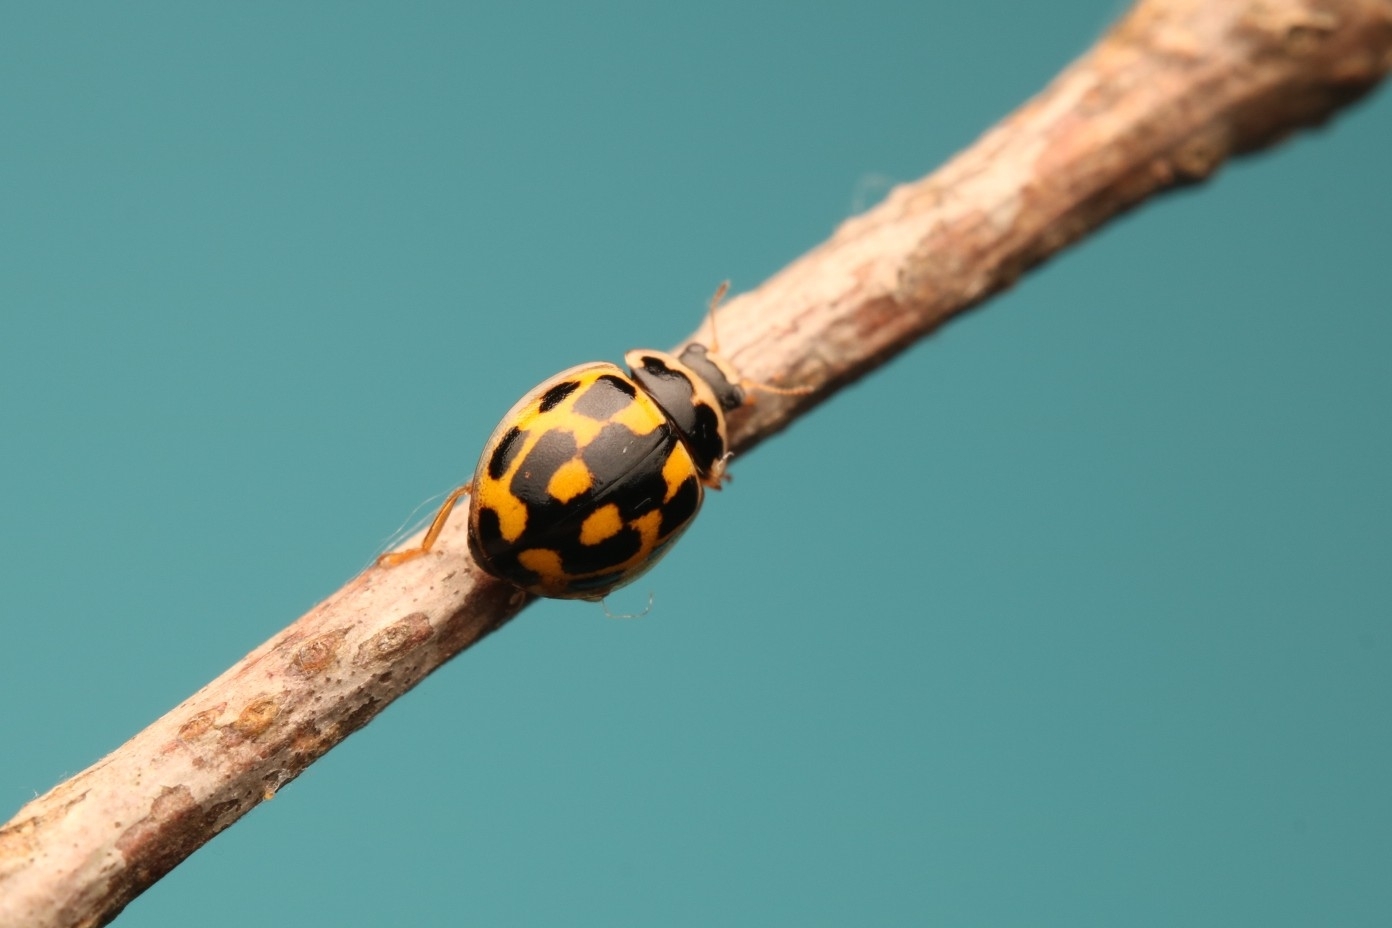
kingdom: Animalia
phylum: Arthropoda
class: Insecta
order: Coleoptera
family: Coccinellidae
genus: Propylaea
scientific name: Propylaea quatuordecimpunctata
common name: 14-spotted ladybird beetle
